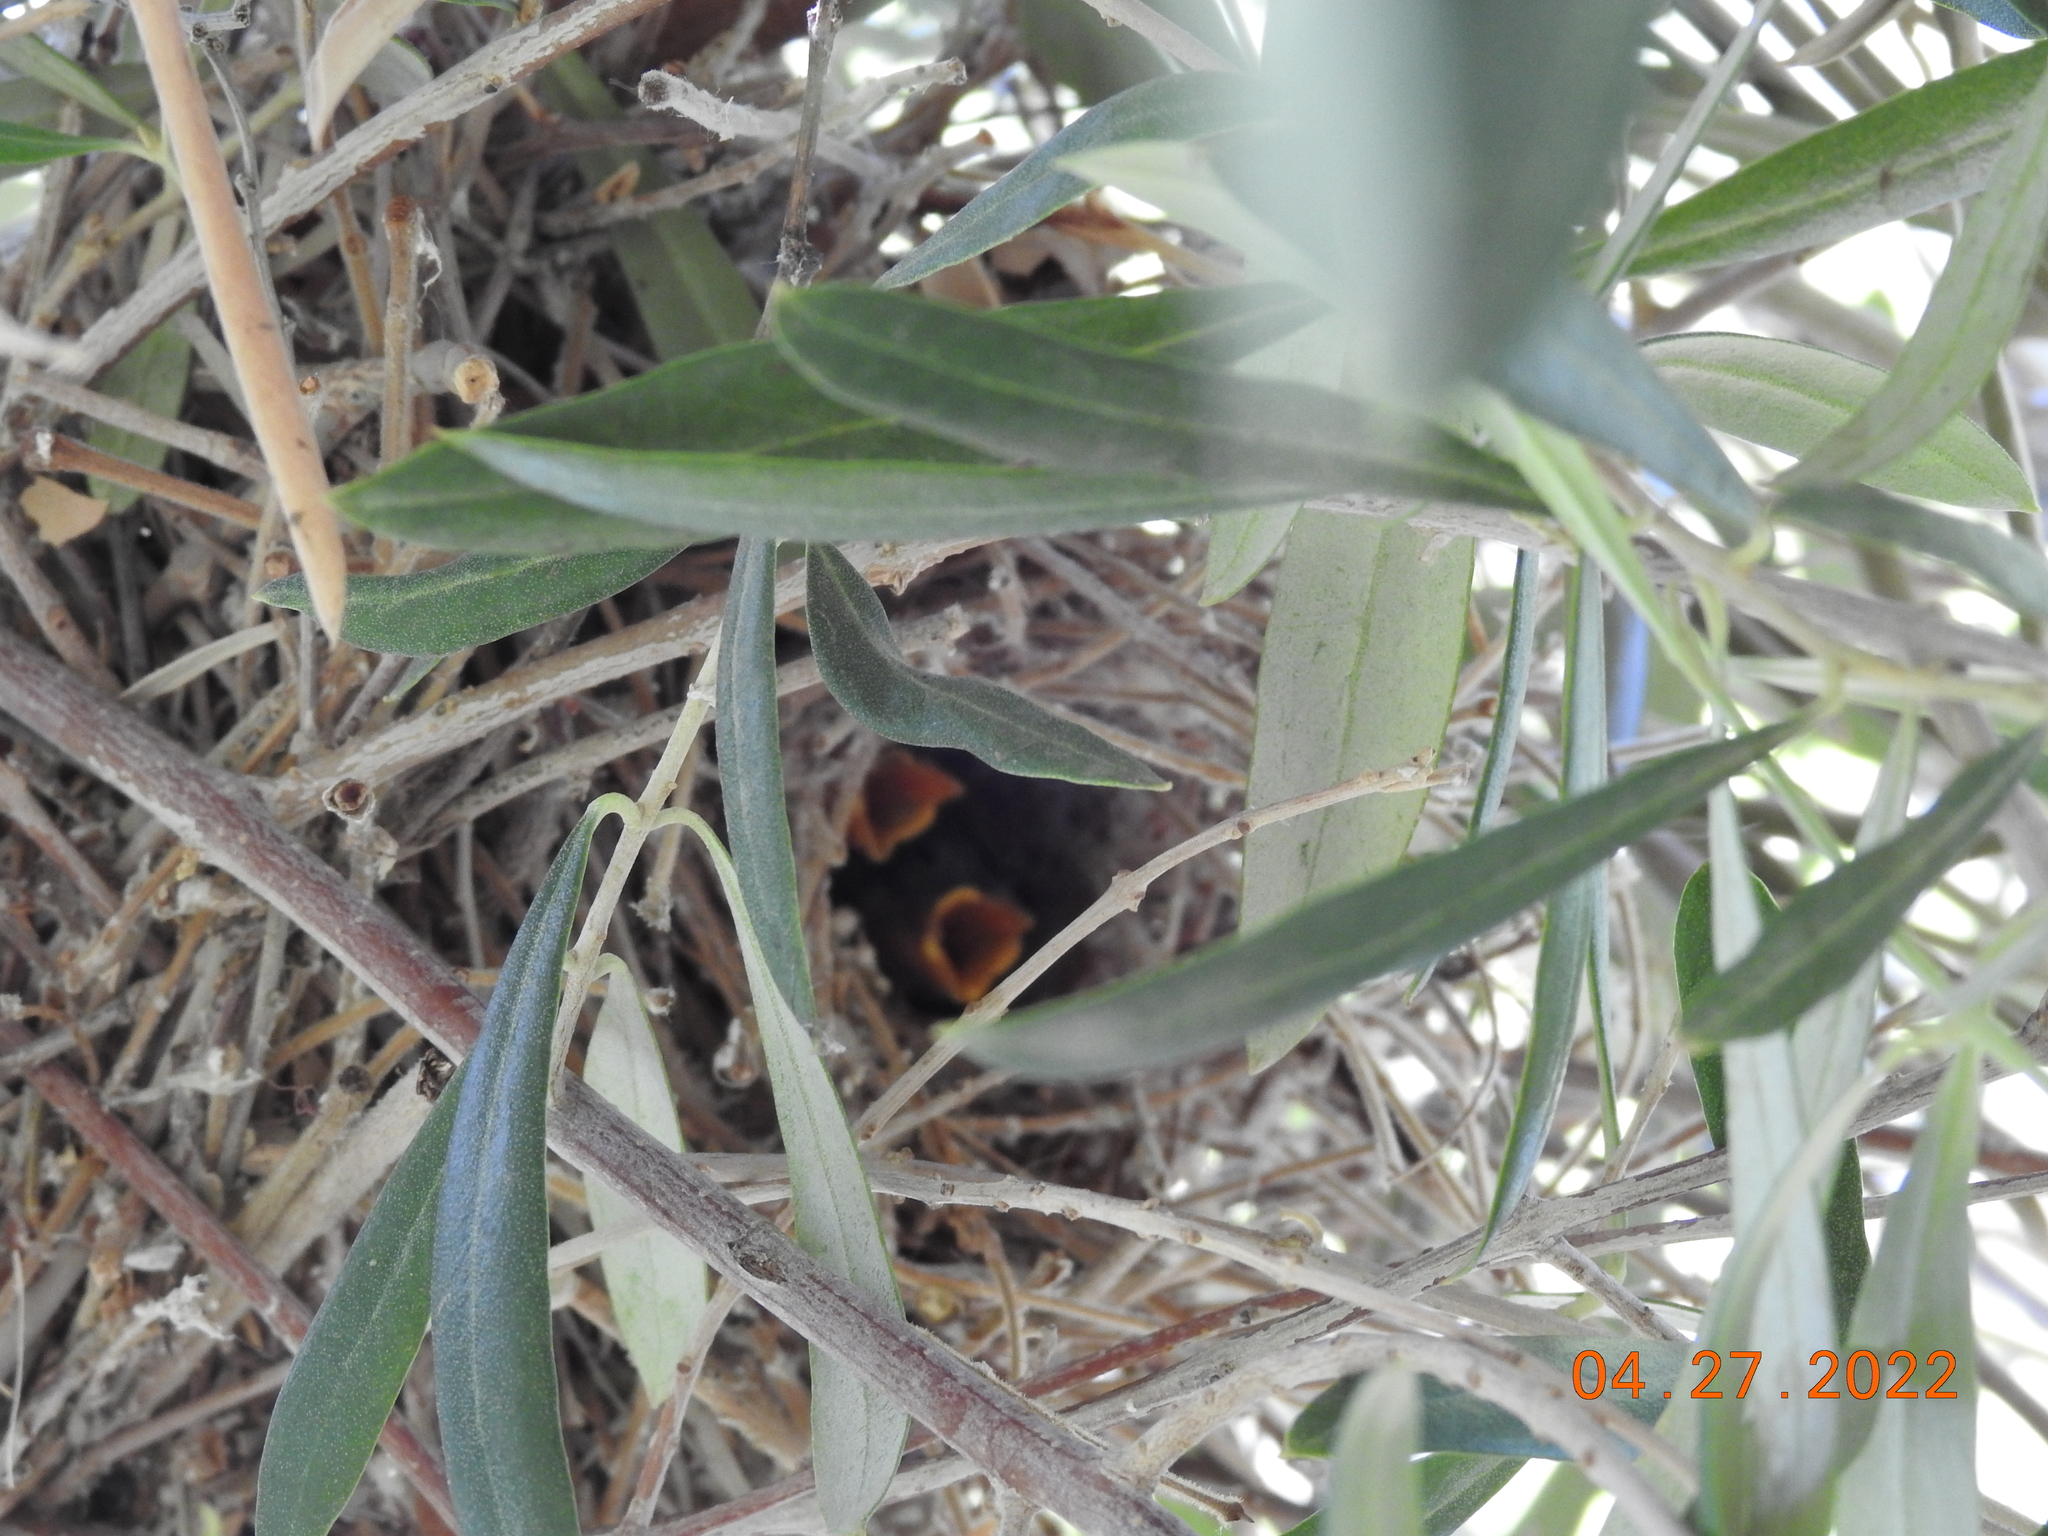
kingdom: Animalia
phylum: Chordata
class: Aves
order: Passeriformes
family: Remizidae
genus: Auriparus
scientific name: Auriparus flaviceps
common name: Verdin
